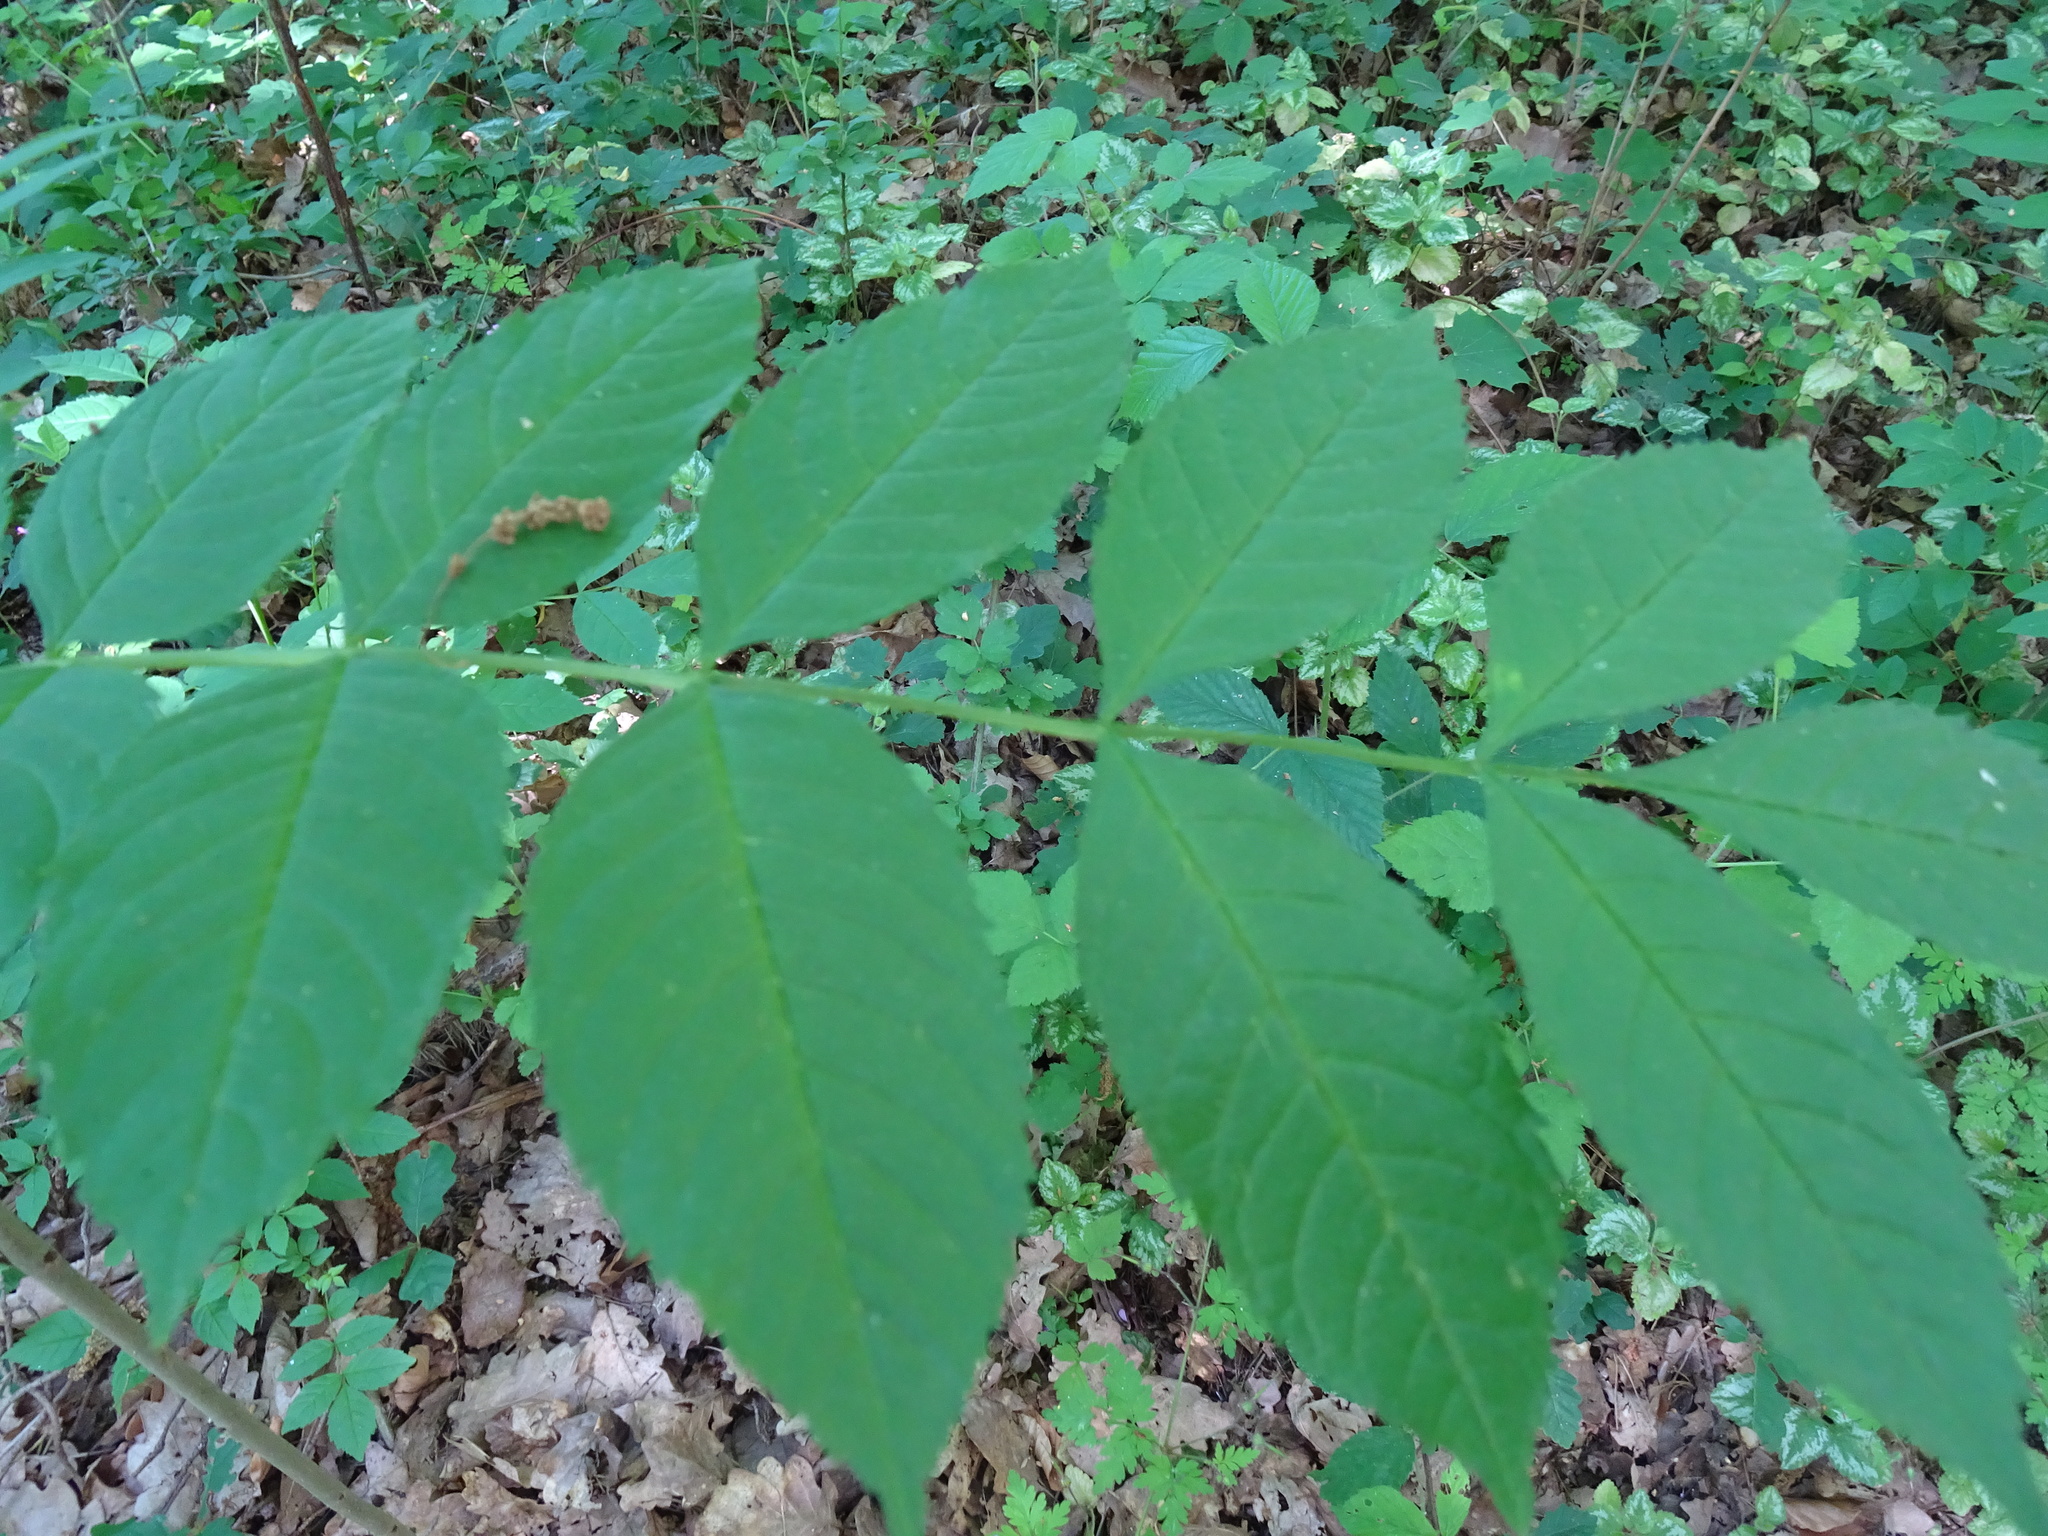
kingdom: Plantae
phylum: Tracheophyta
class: Magnoliopsida
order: Lamiales
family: Oleaceae
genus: Fraxinus
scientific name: Fraxinus excelsior
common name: European ash
